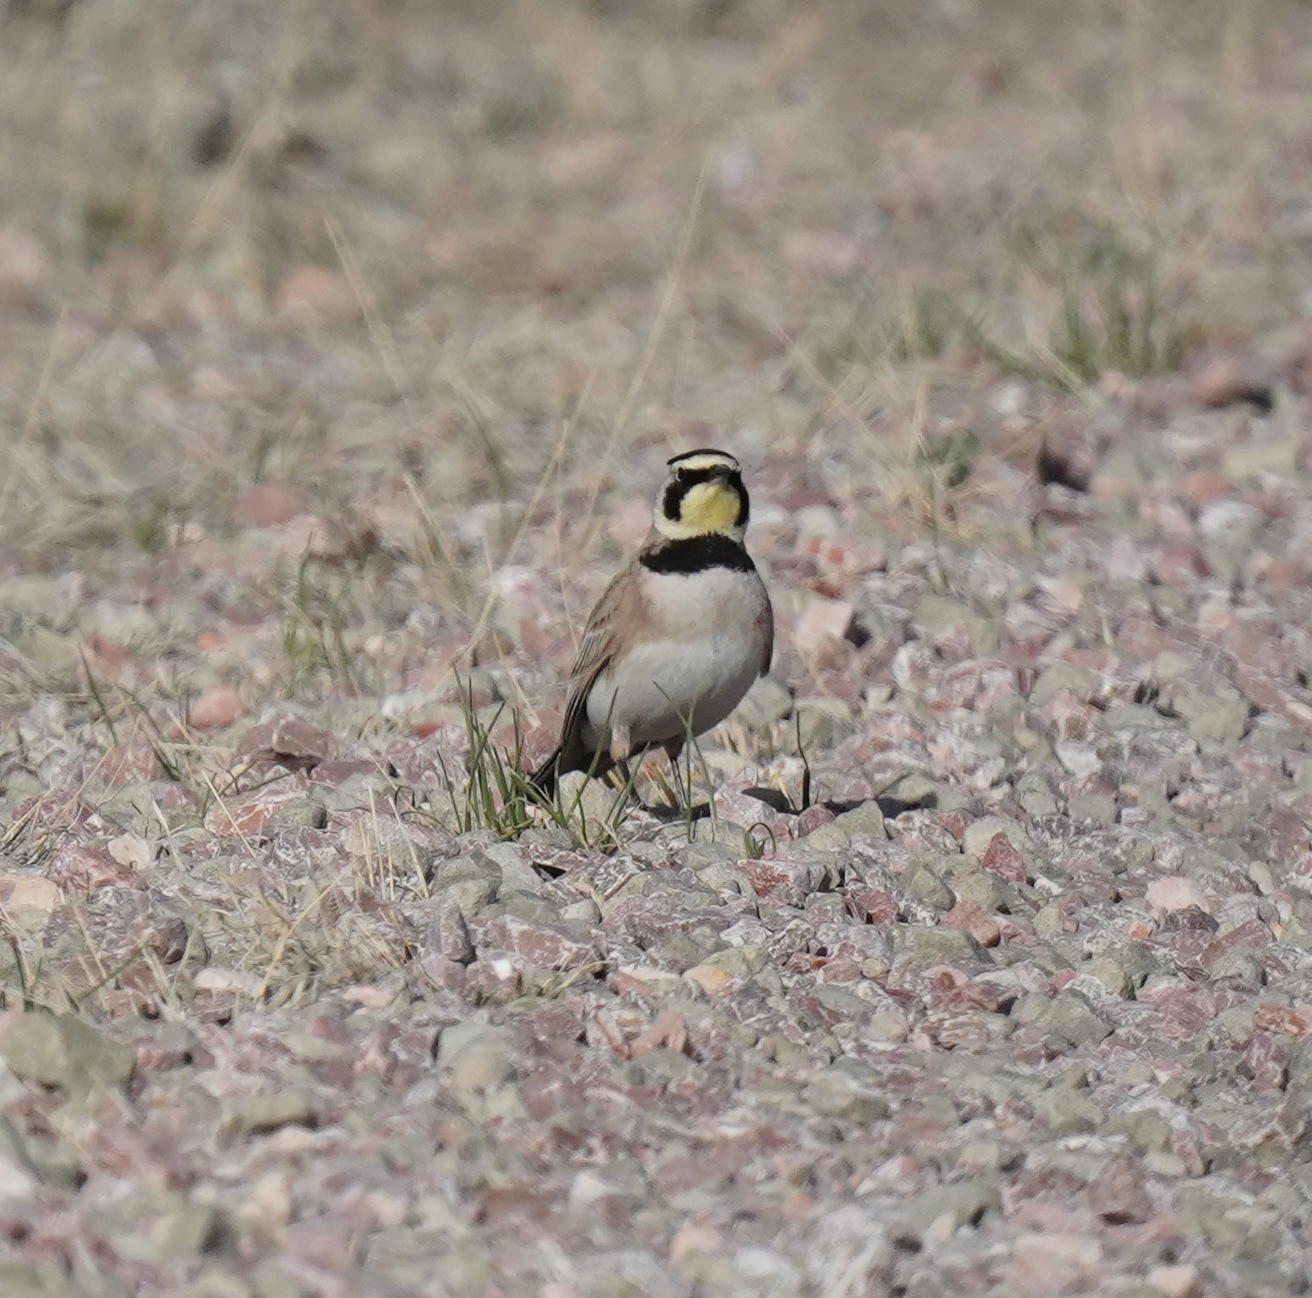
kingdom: Animalia
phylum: Chordata
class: Aves
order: Passeriformes
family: Alaudidae
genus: Eremophila
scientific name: Eremophila alpestris
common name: Horned lark
